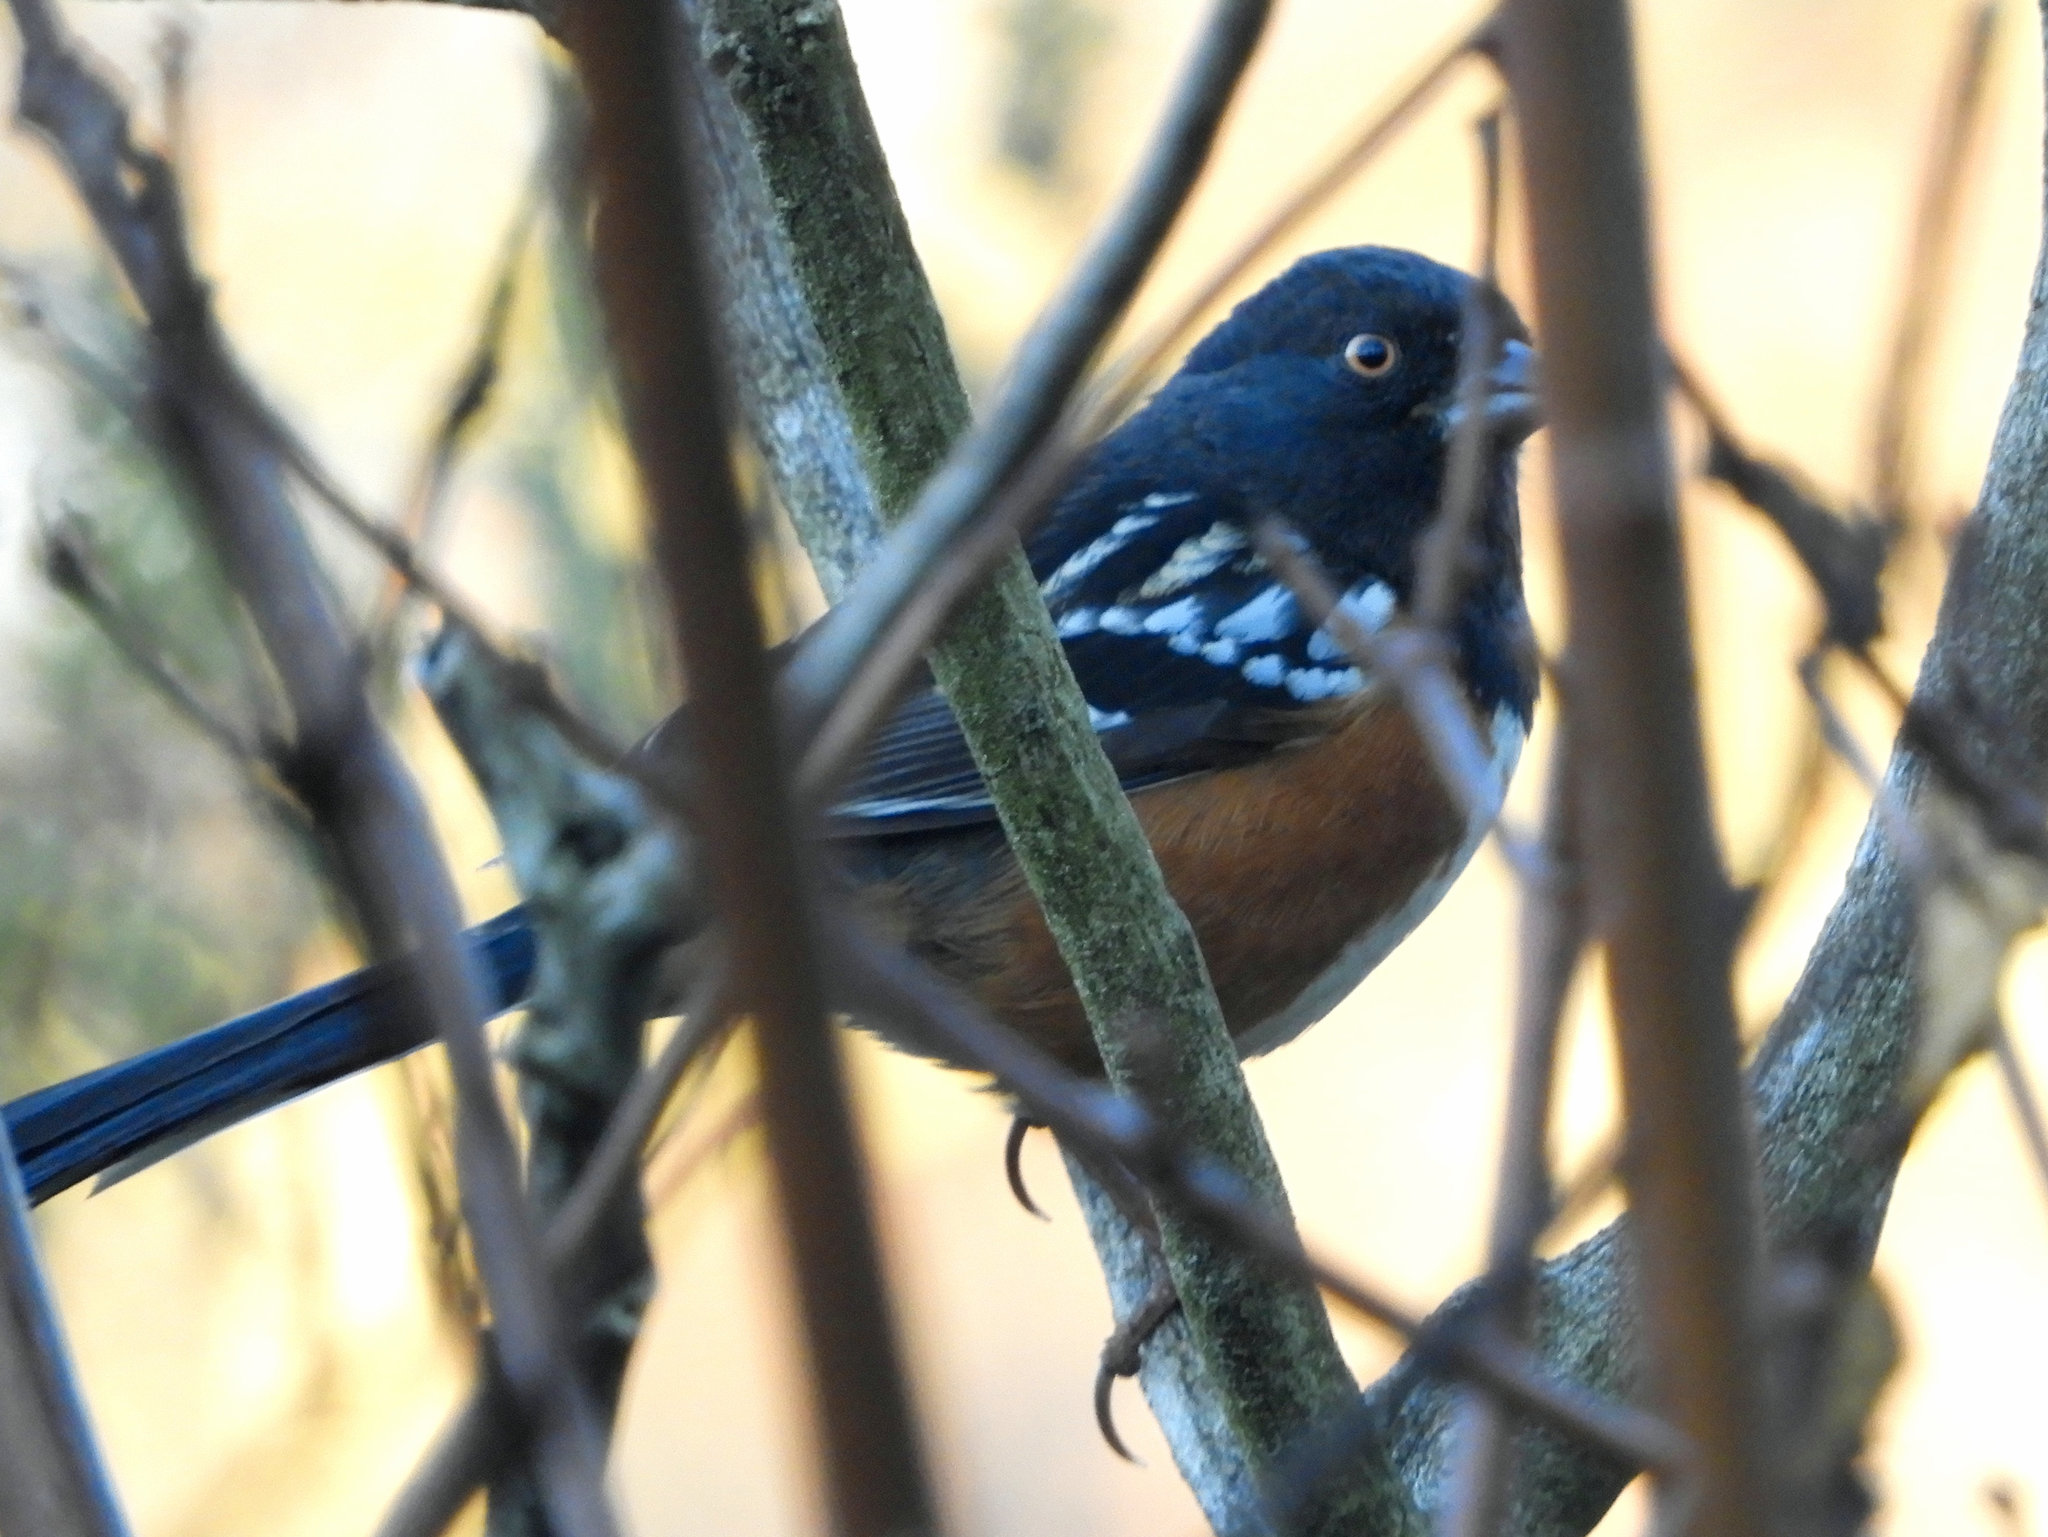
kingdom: Animalia
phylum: Chordata
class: Aves
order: Passeriformes
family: Passerellidae
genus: Pipilo
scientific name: Pipilo maculatus
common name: Spotted towhee
